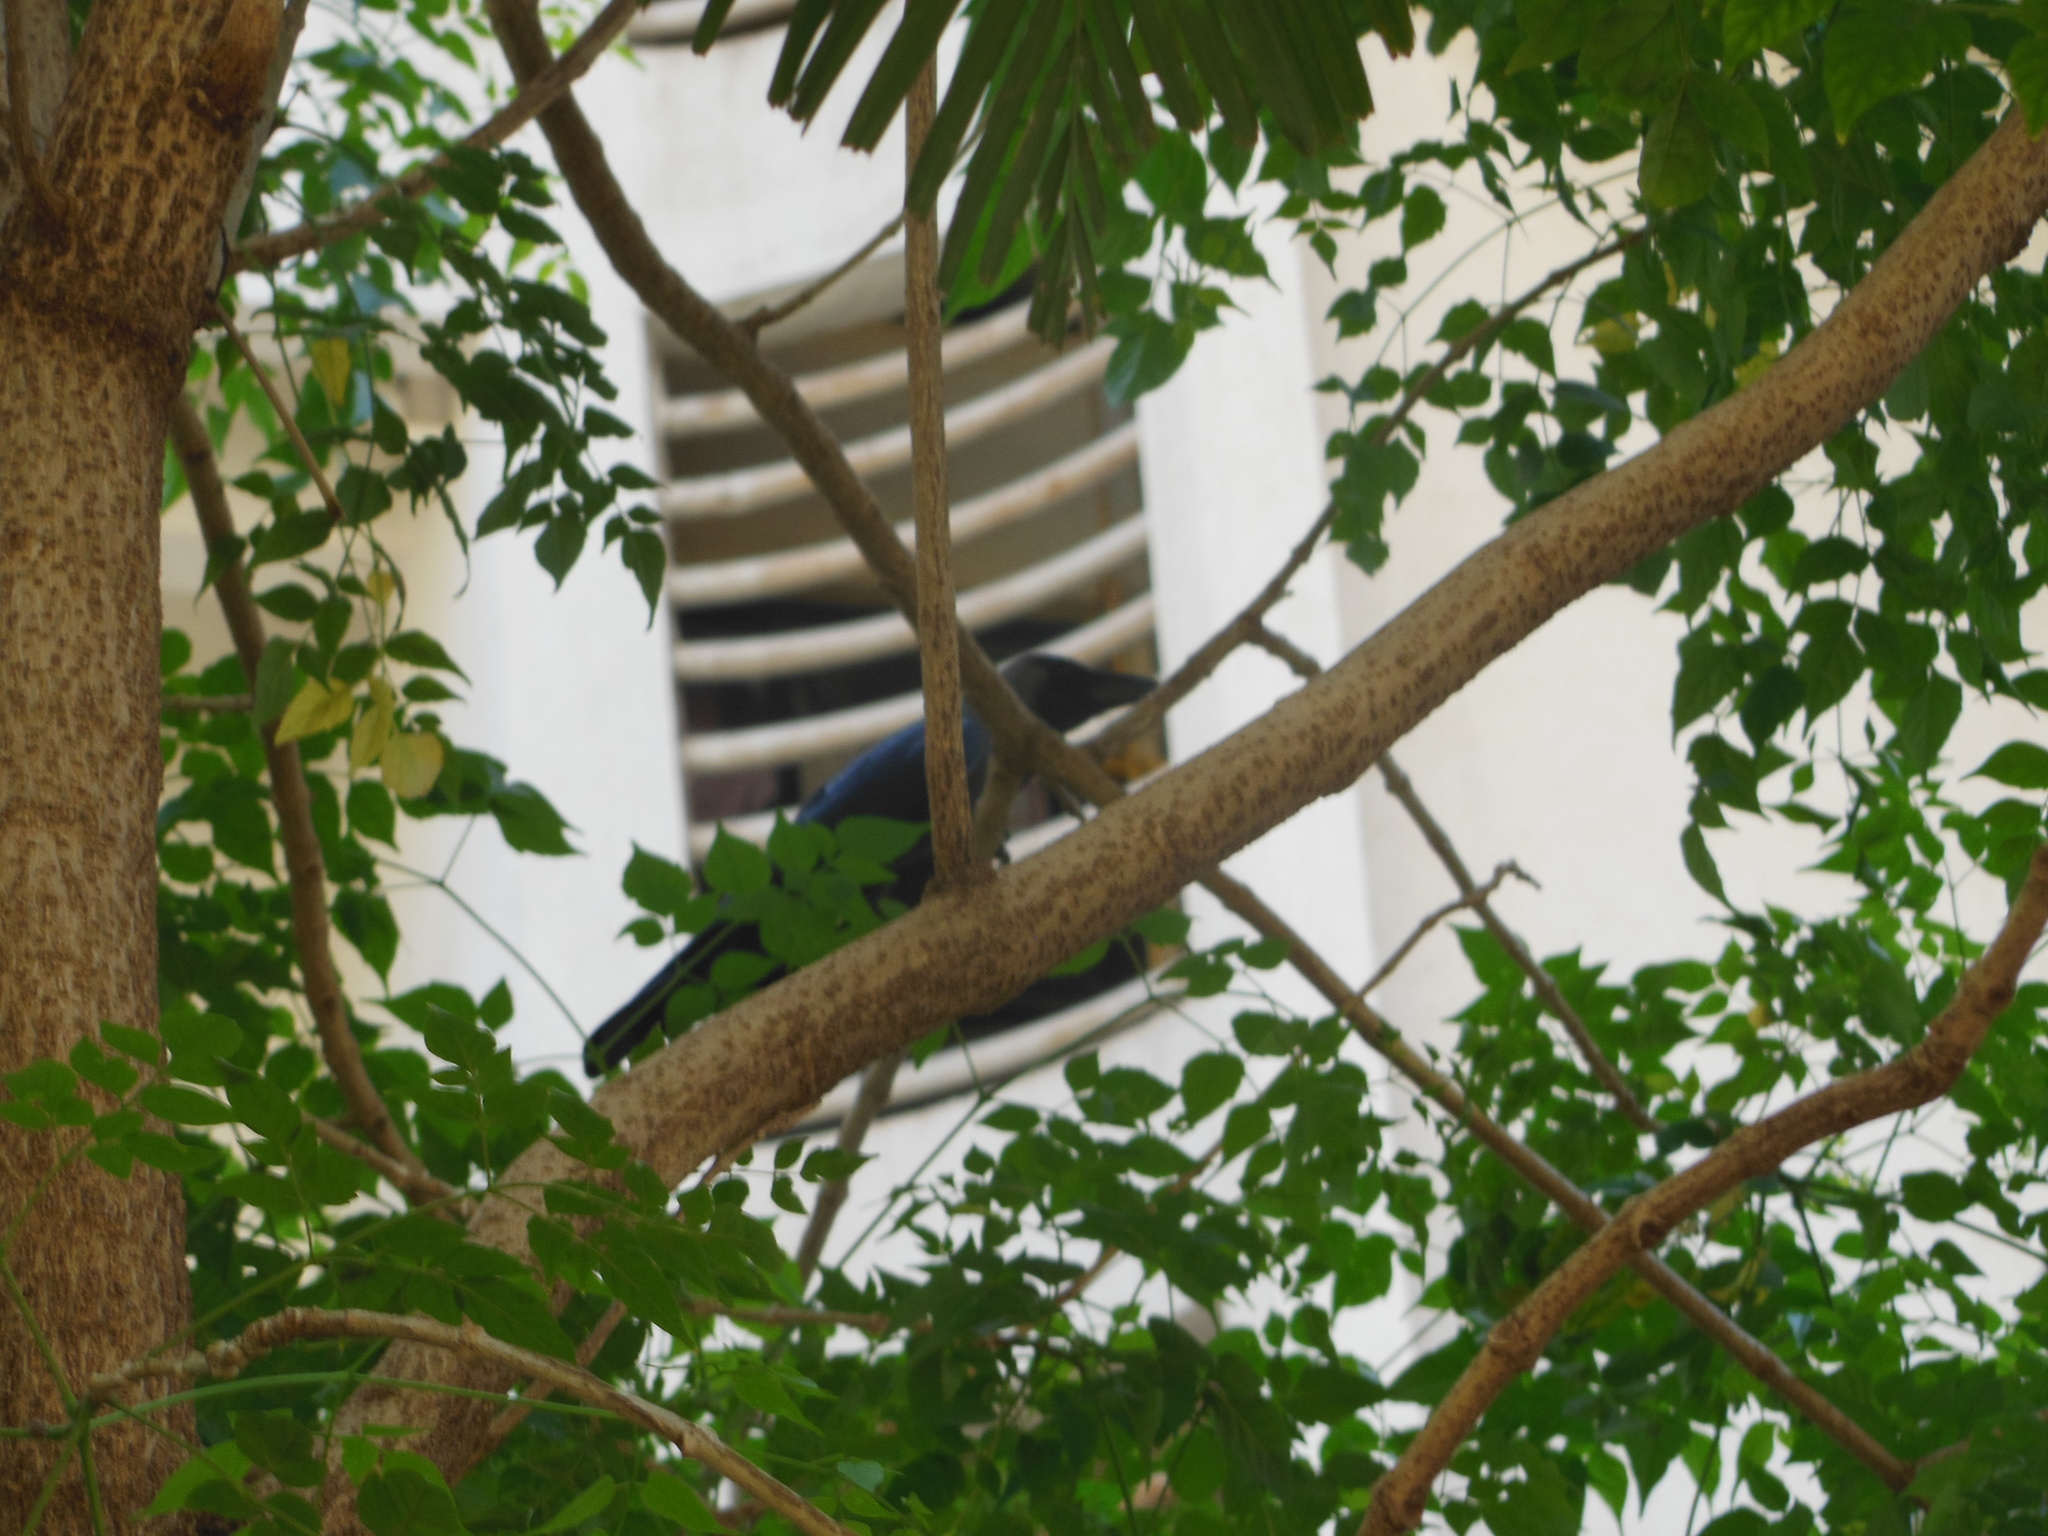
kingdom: Animalia
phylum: Chordata
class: Aves
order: Passeriformes
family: Corvidae
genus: Corvus
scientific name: Corvus splendens
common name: House crow
